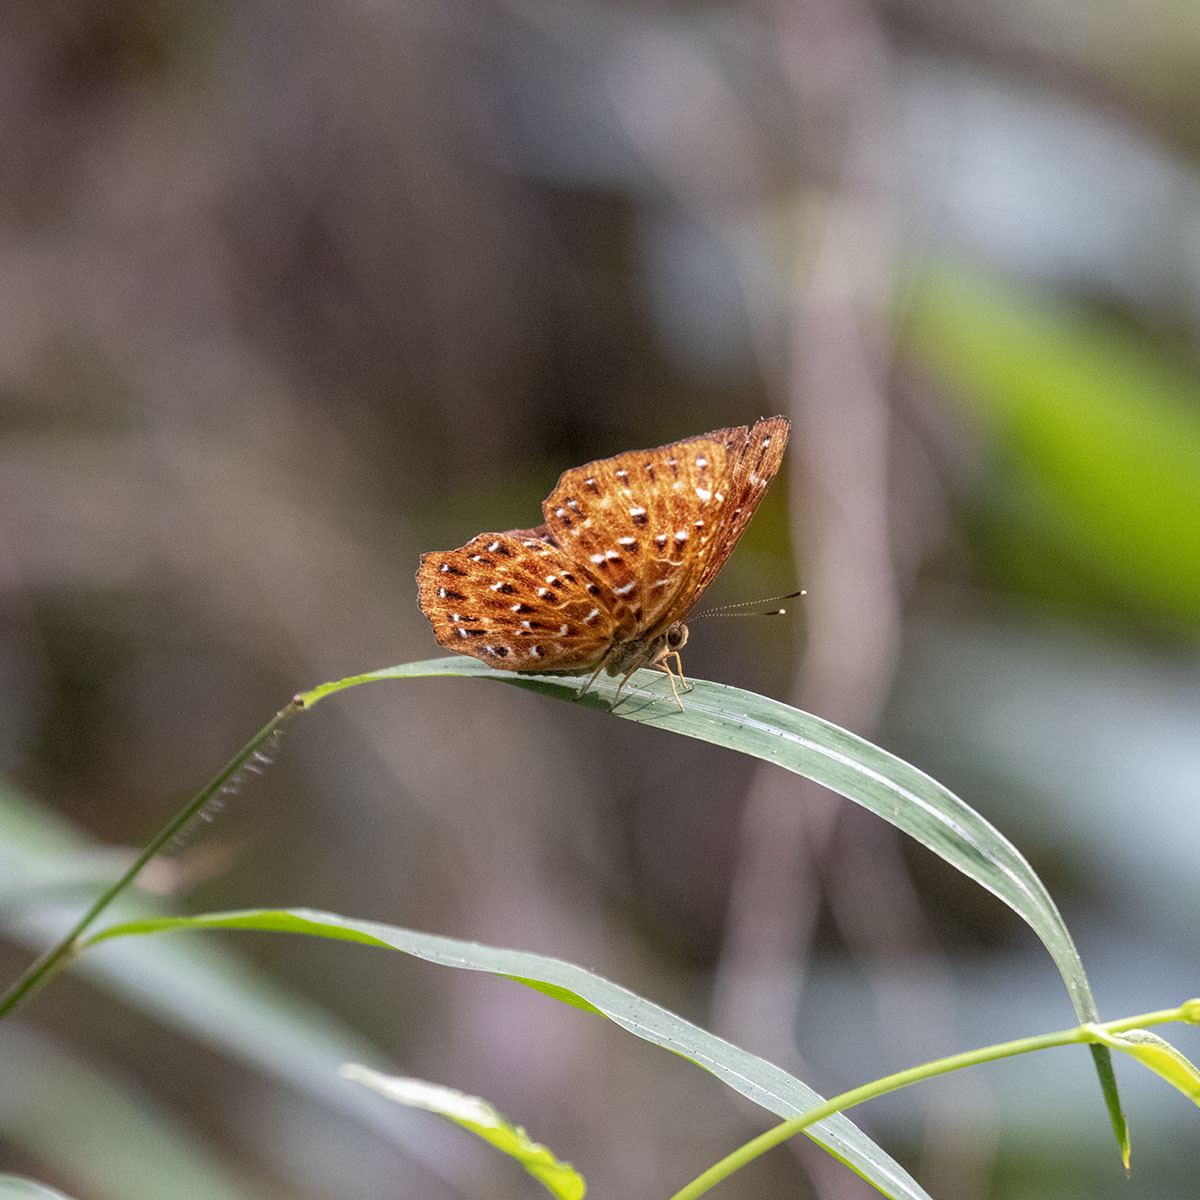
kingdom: Animalia
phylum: Arthropoda
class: Insecta
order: Lepidoptera
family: Riodinidae
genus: Zemeros
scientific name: Zemeros flegyas
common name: Punchinello
